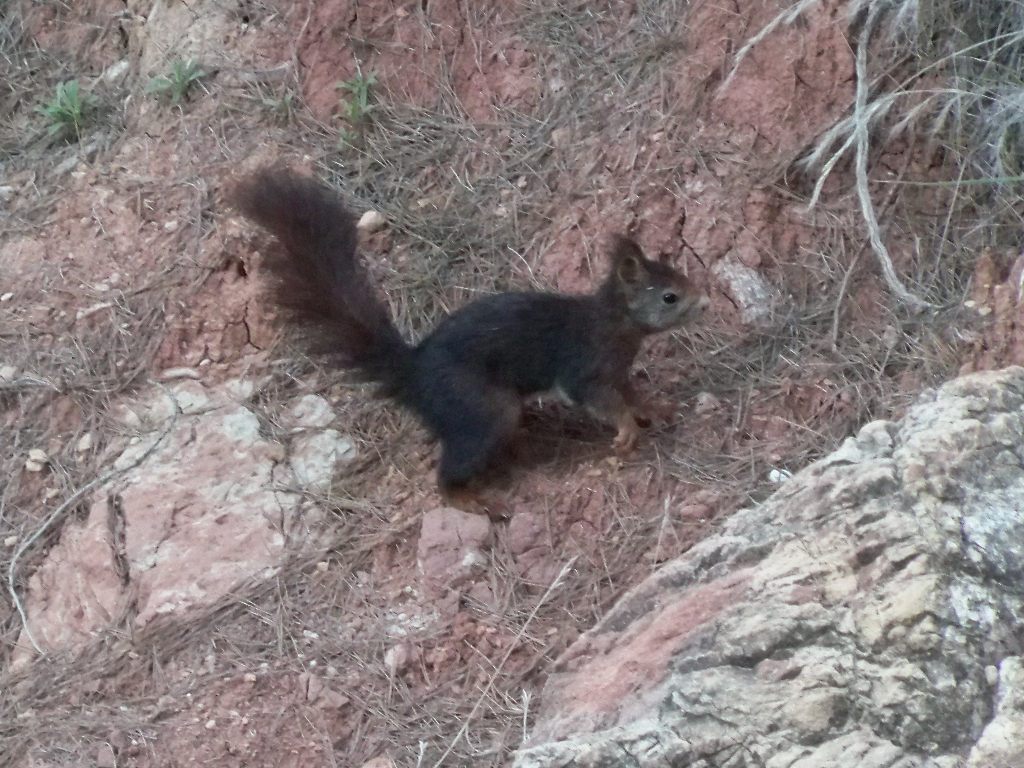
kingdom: Animalia
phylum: Chordata
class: Mammalia
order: Rodentia
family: Sciuridae
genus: Sciurus
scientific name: Sciurus vulgaris
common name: Eurasian red squirrel
